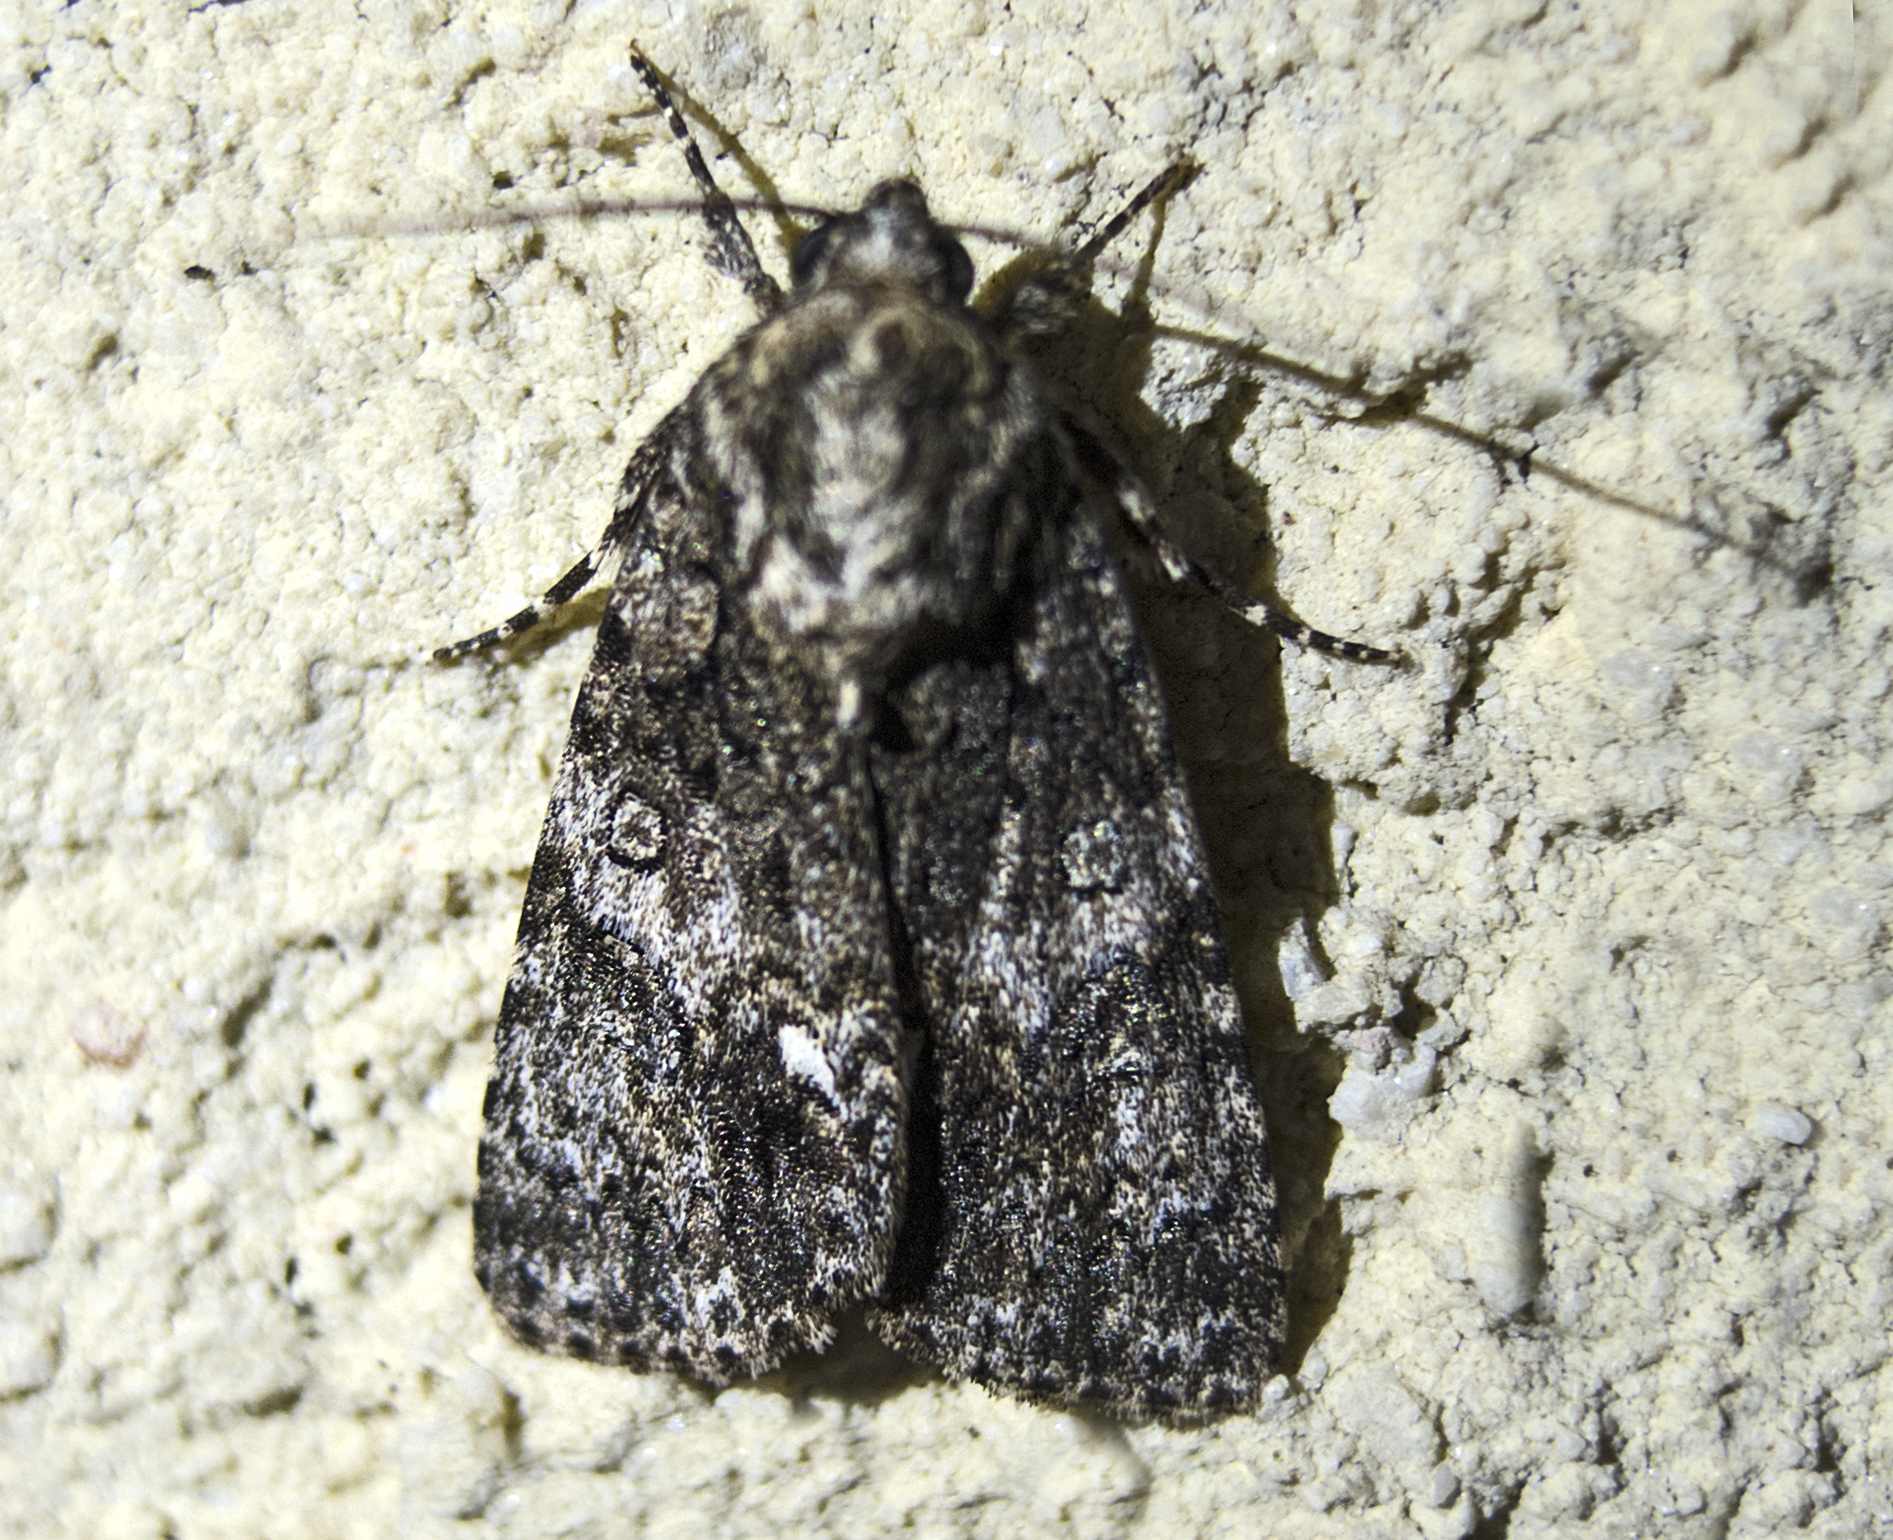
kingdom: Animalia
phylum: Arthropoda
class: Insecta
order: Lepidoptera
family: Noctuidae
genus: Acronicta
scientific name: Acronicta rumicis
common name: Knot grass
